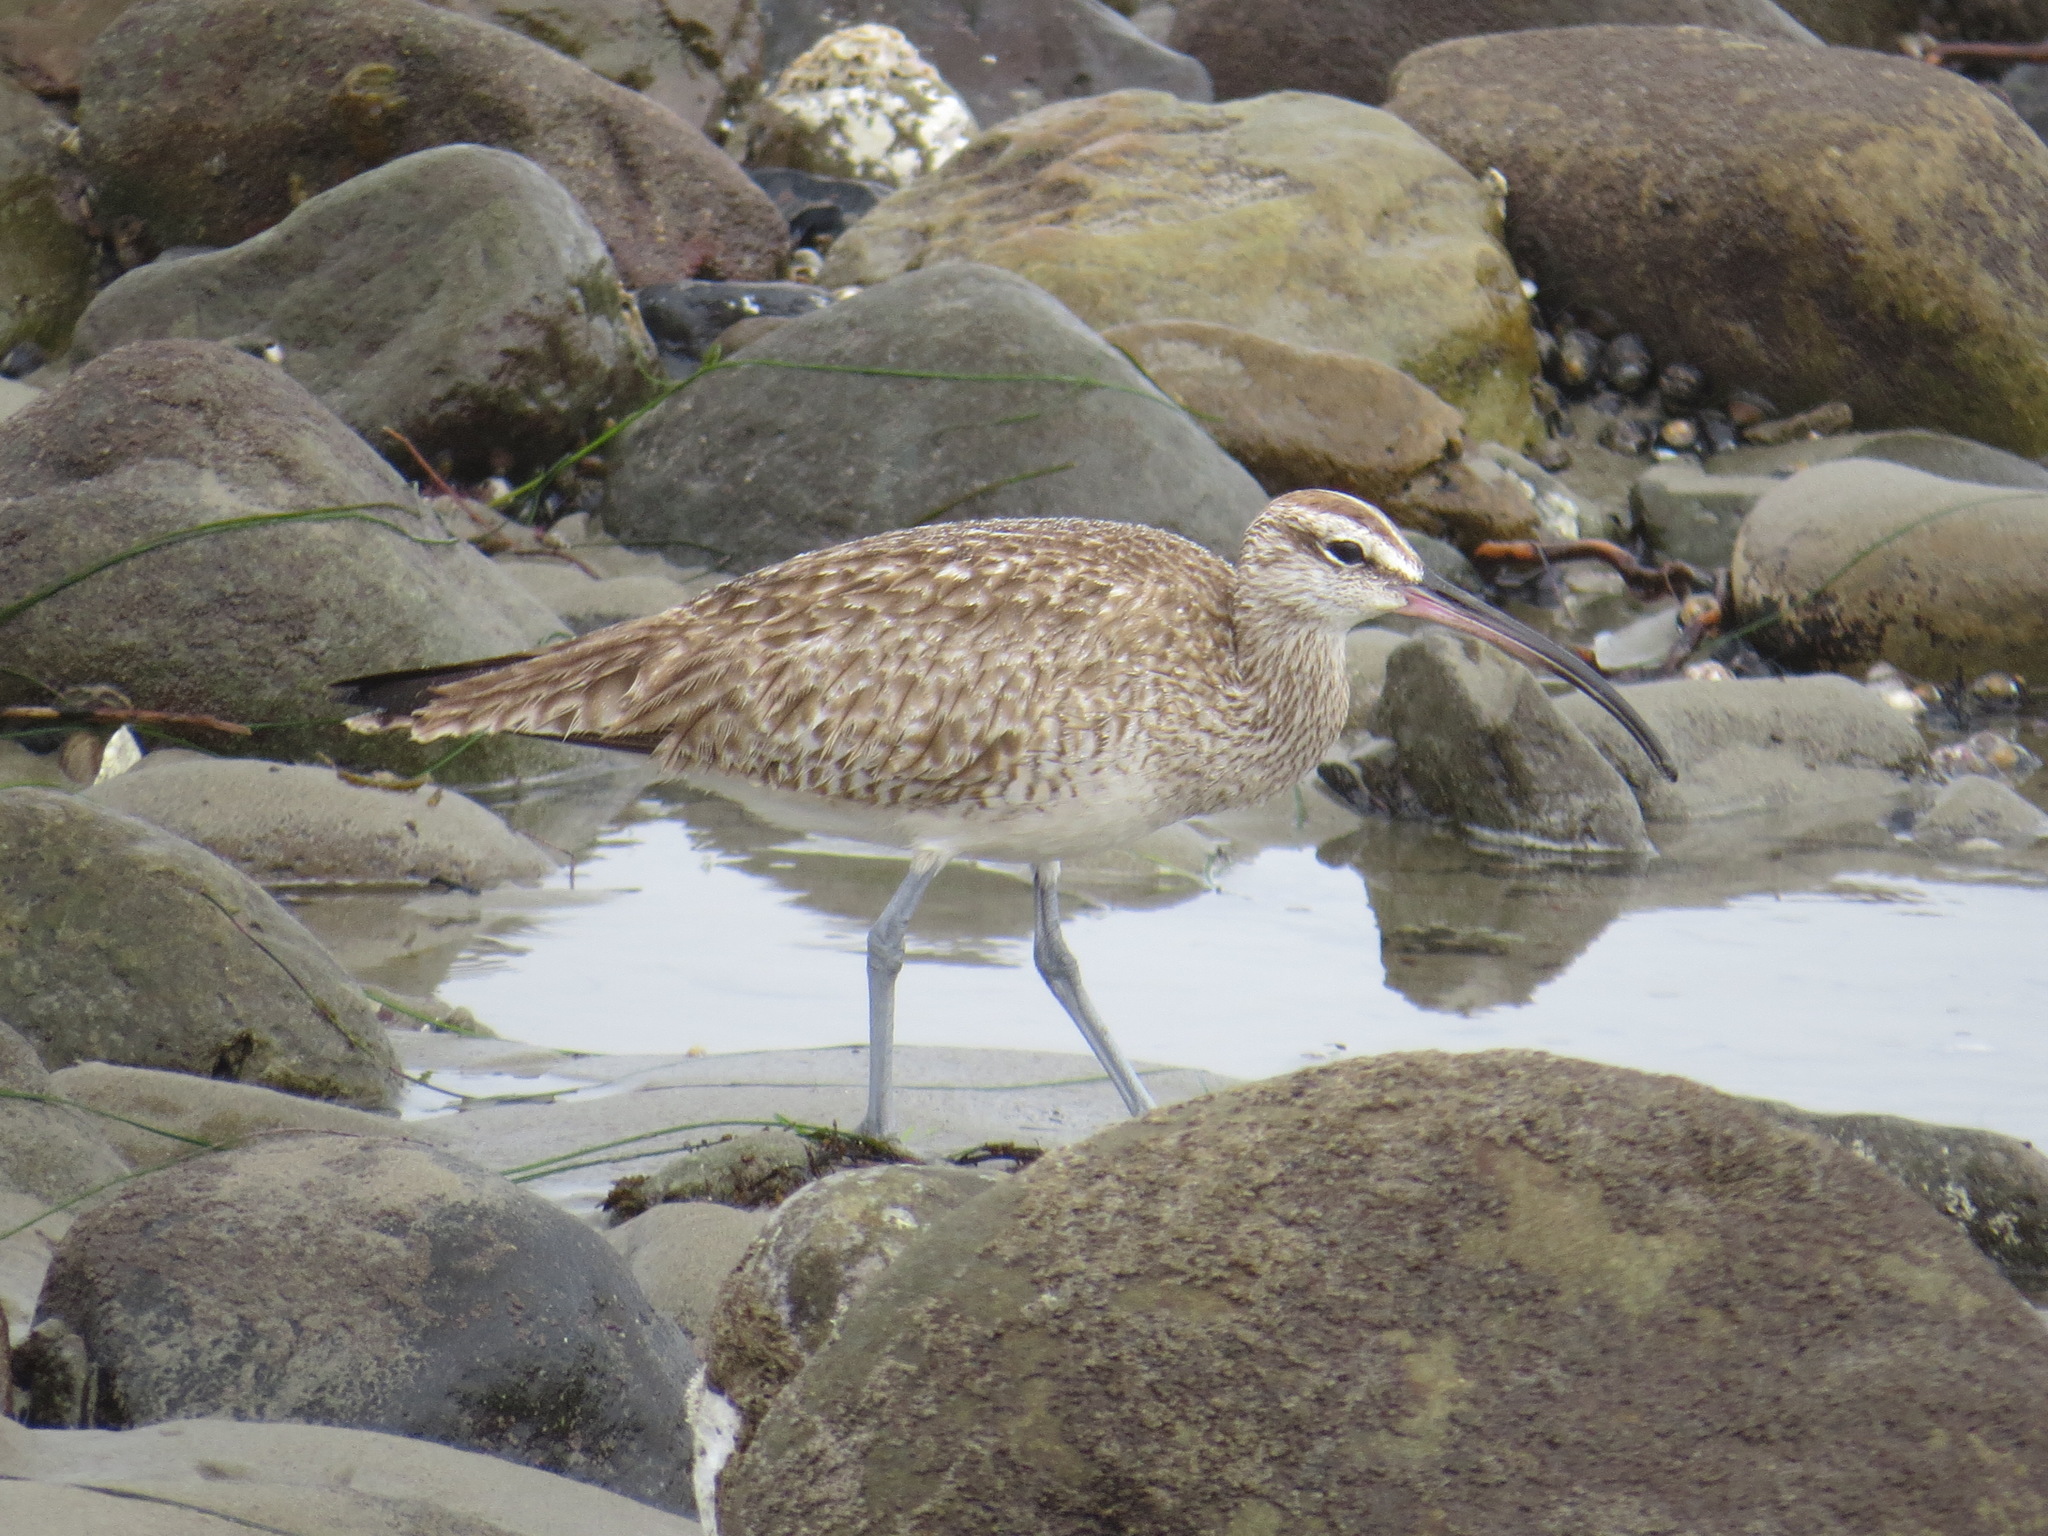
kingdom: Animalia
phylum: Chordata
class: Aves
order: Charadriiformes
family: Scolopacidae
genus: Numenius
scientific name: Numenius phaeopus
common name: Whimbrel
